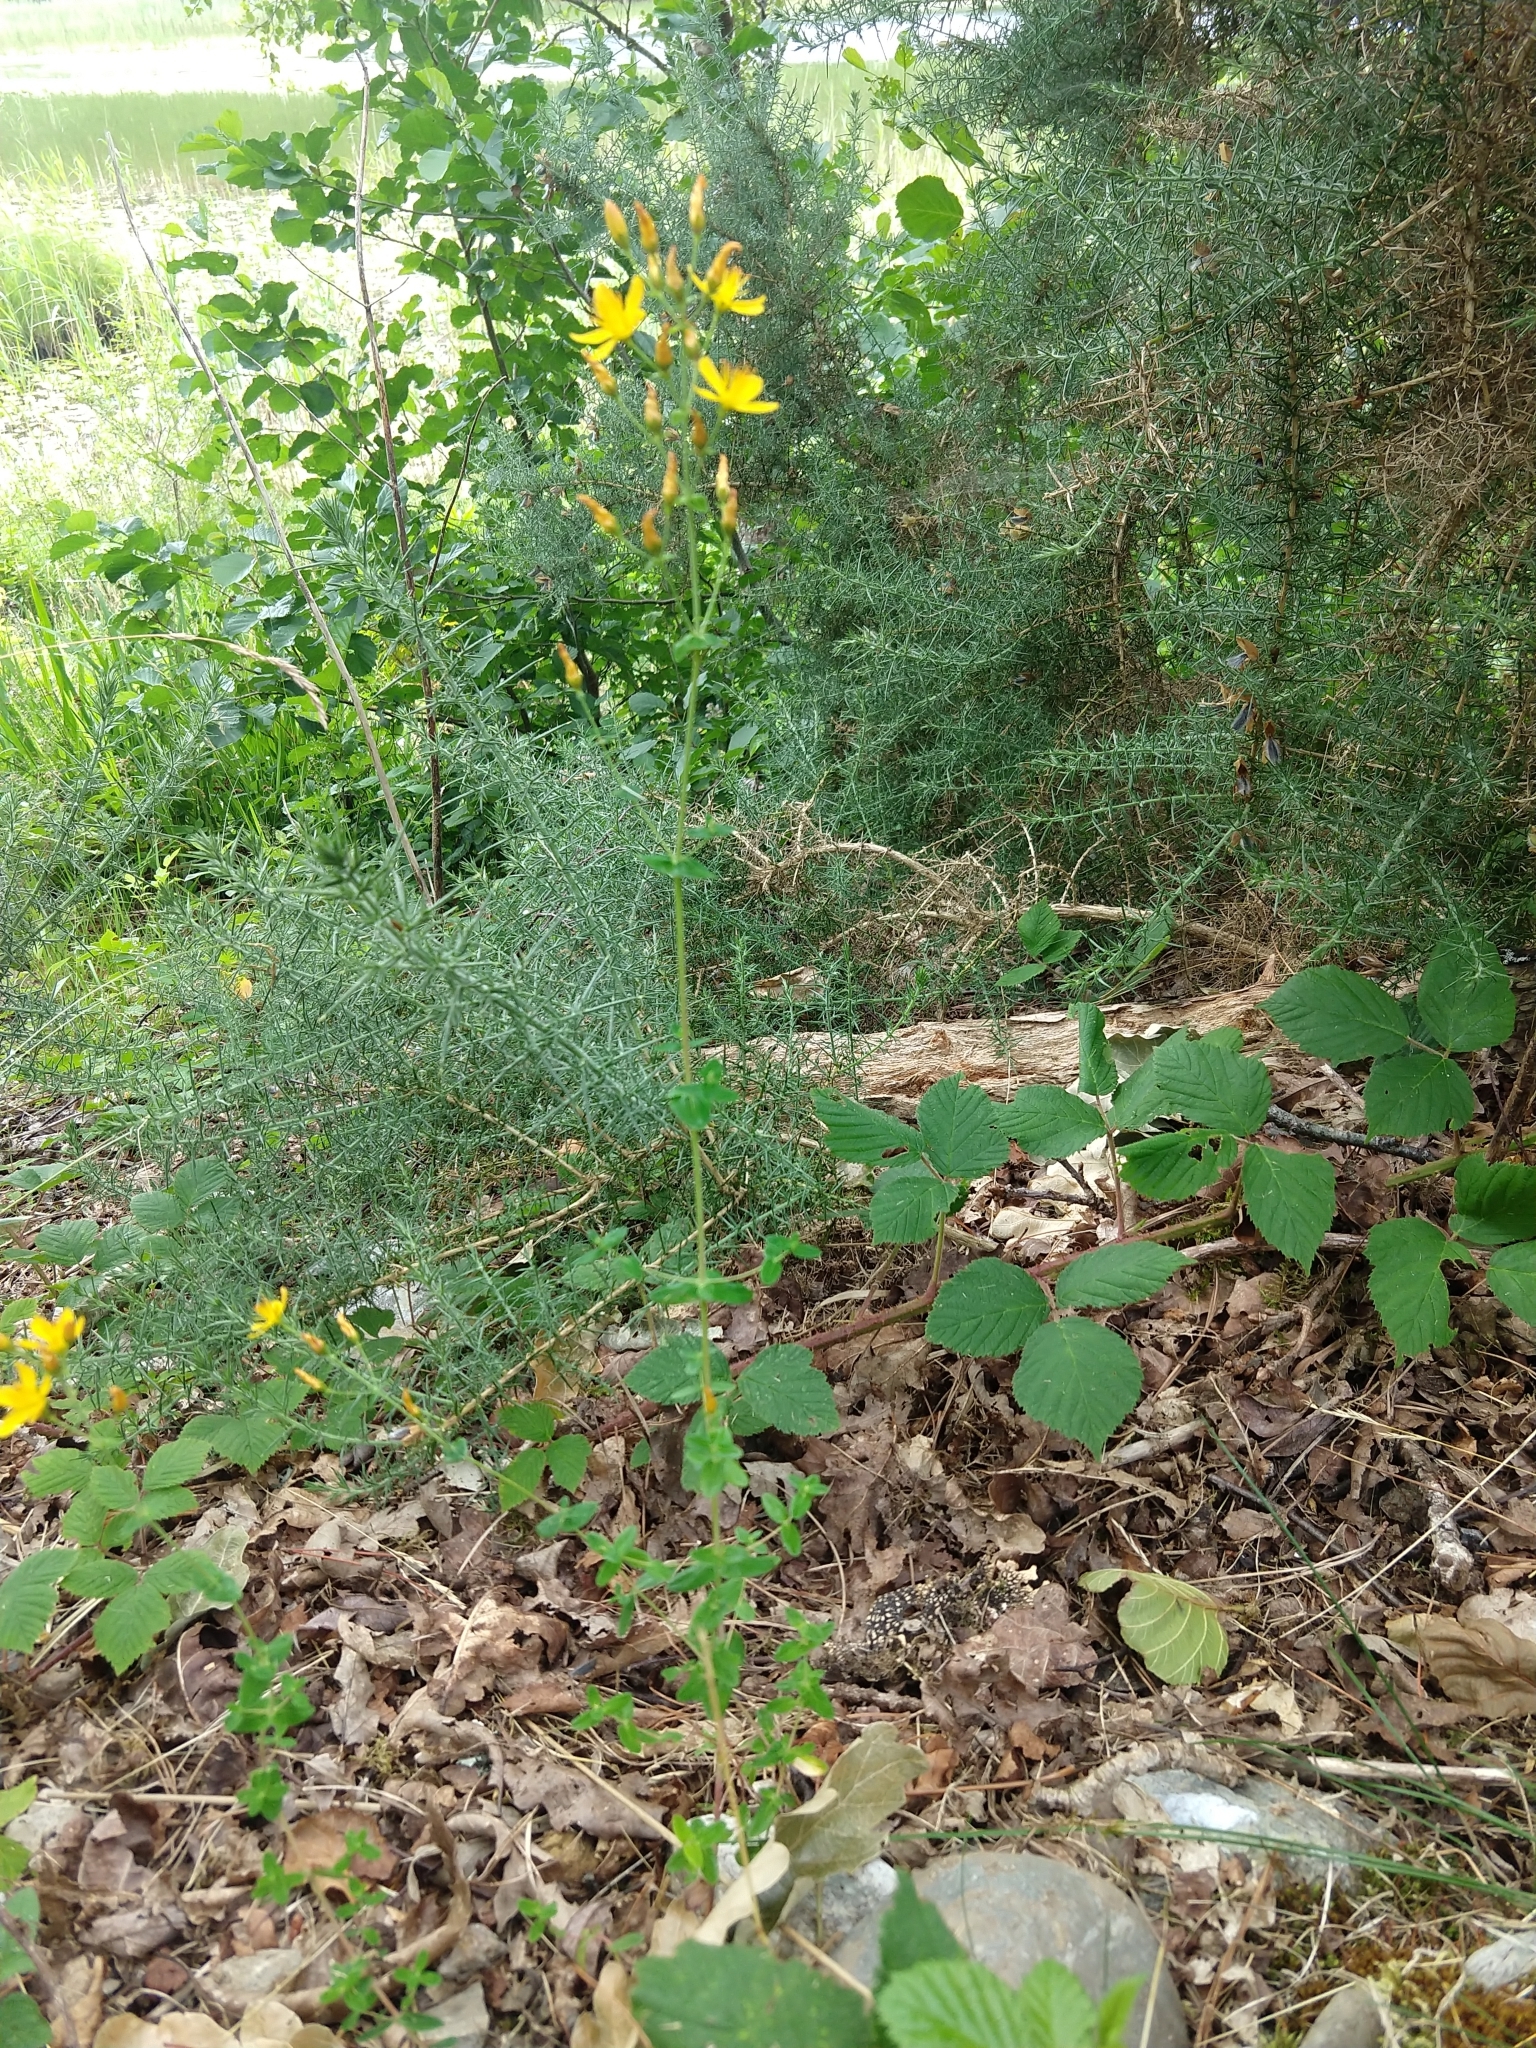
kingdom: Plantae
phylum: Tracheophyta
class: Magnoliopsida
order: Malpighiales
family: Hypericaceae
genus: Hypericum
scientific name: Hypericum pulchrum
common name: Slender st. john's-wort
